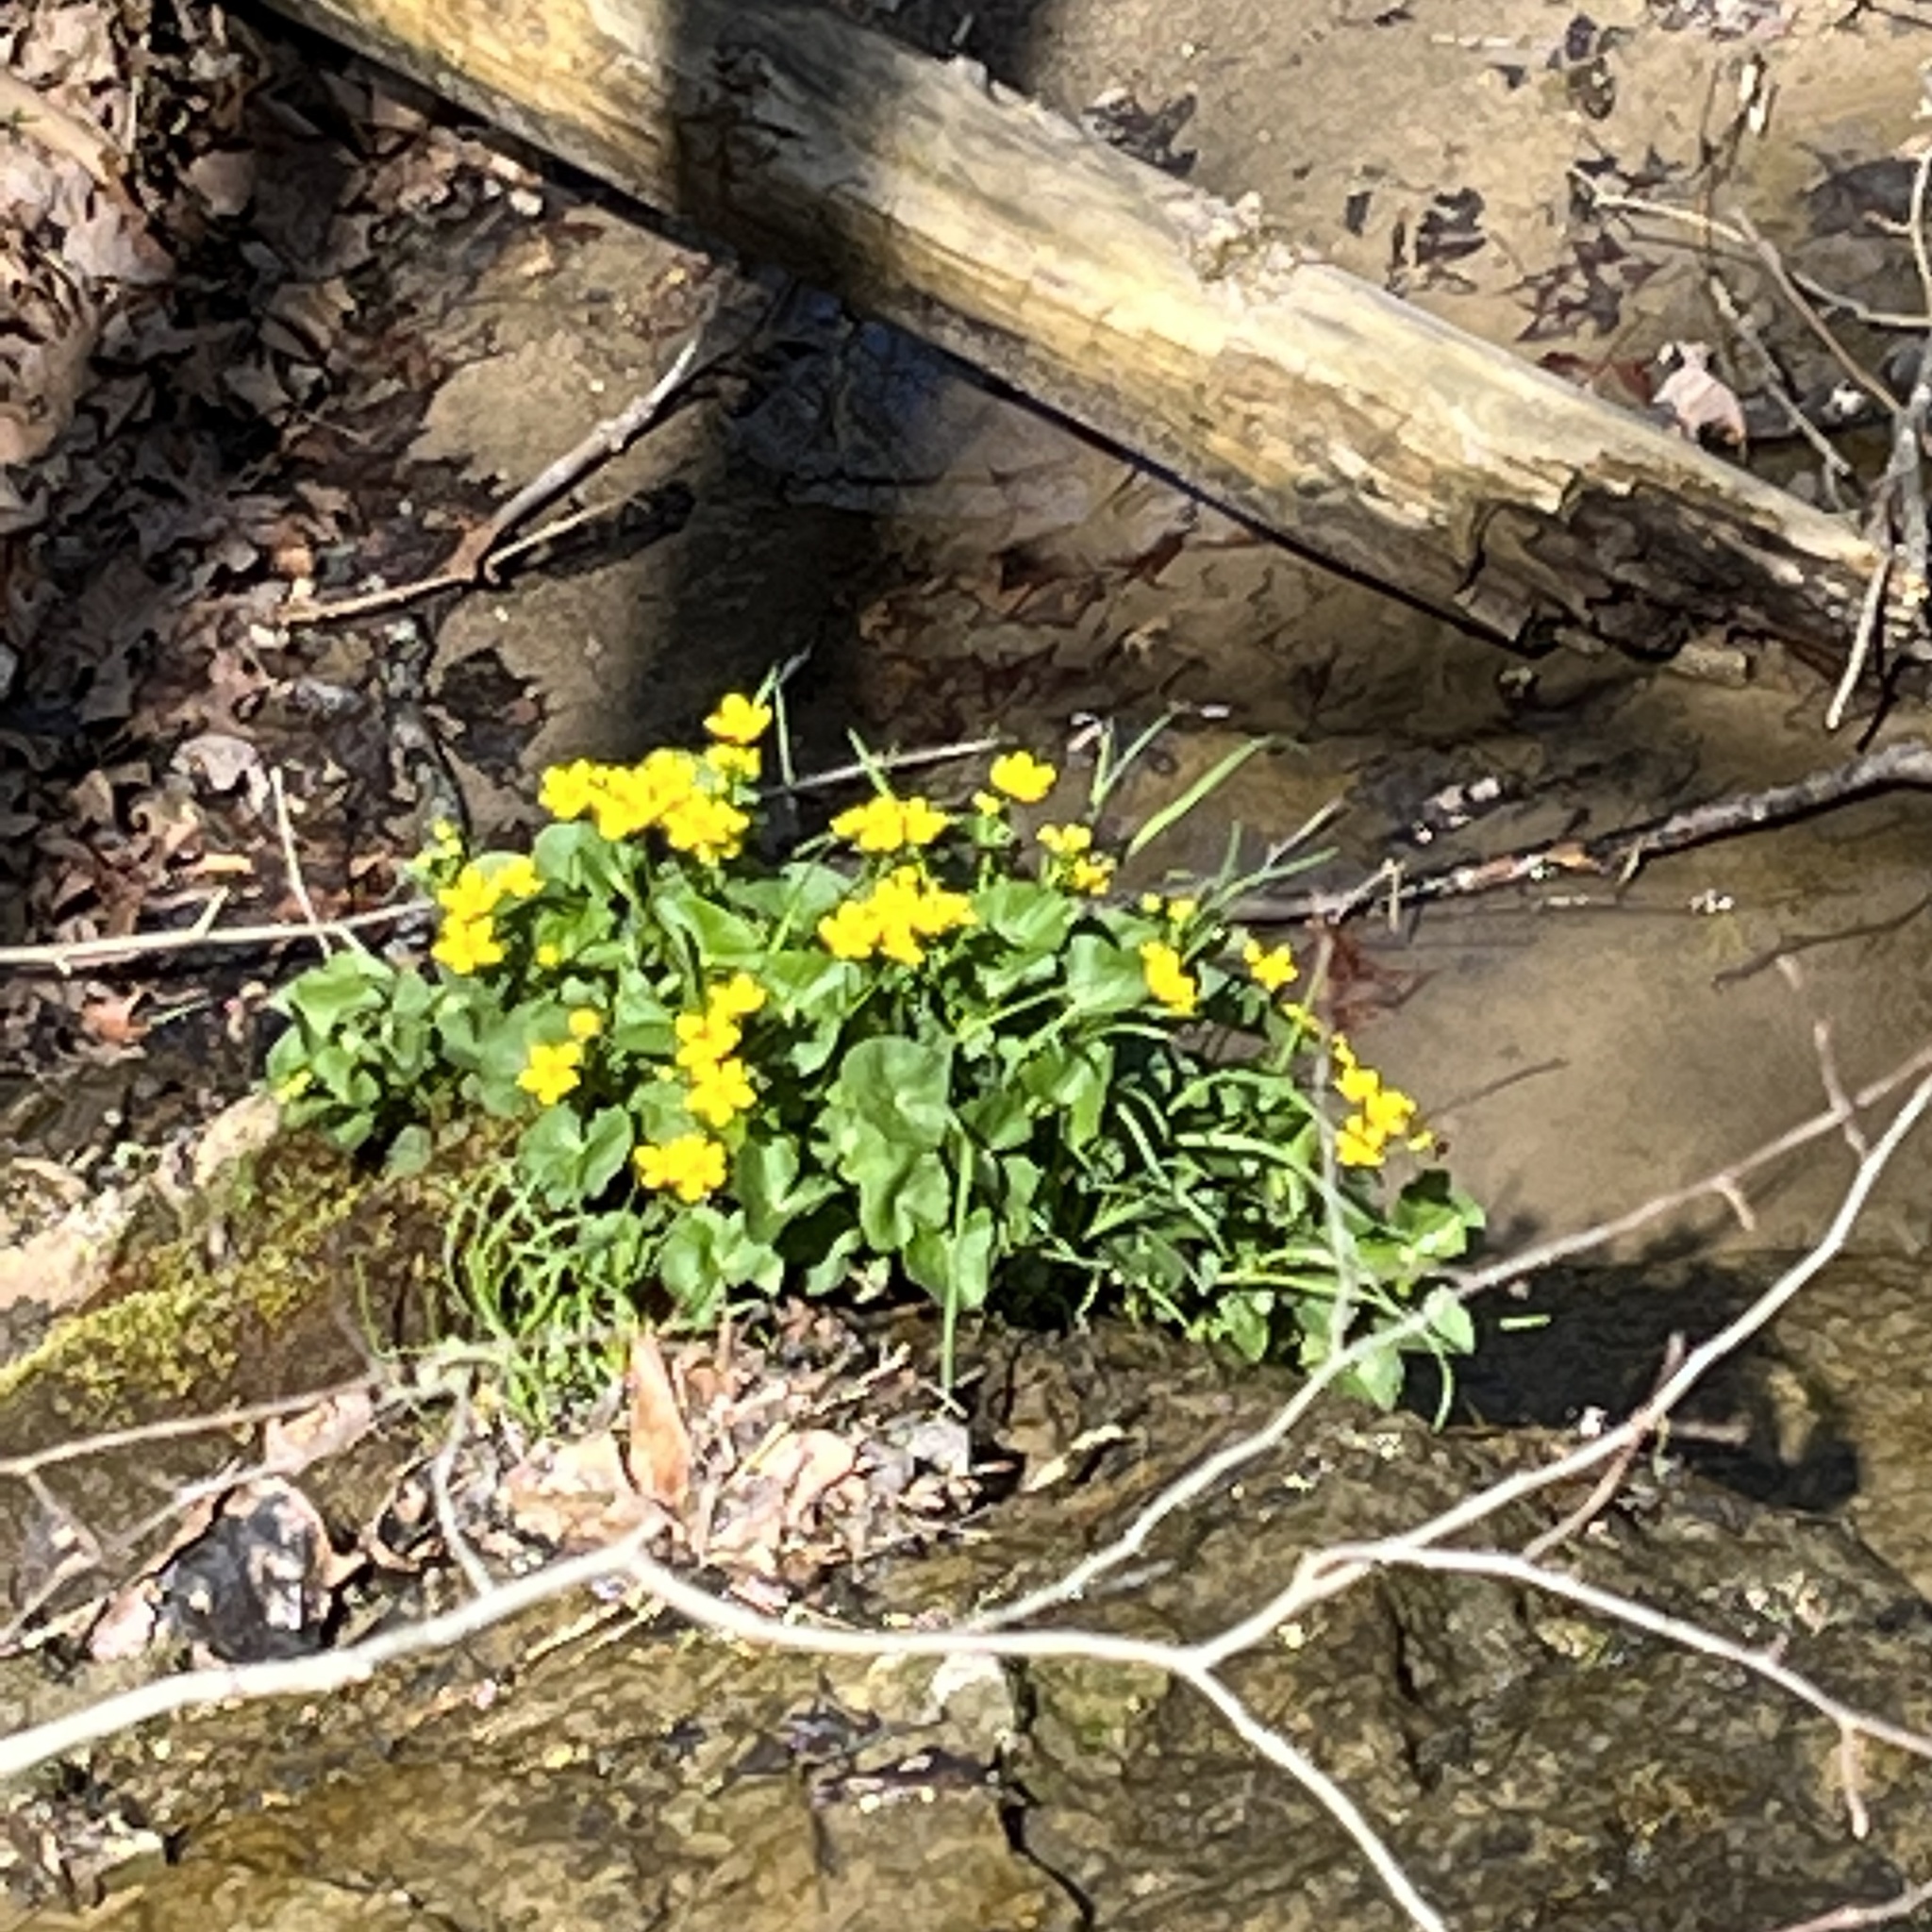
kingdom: Plantae
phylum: Tracheophyta
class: Magnoliopsida
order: Ranunculales
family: Ranunculaceae
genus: Caltha
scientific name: Caltha palustris
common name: Marsh marigold
